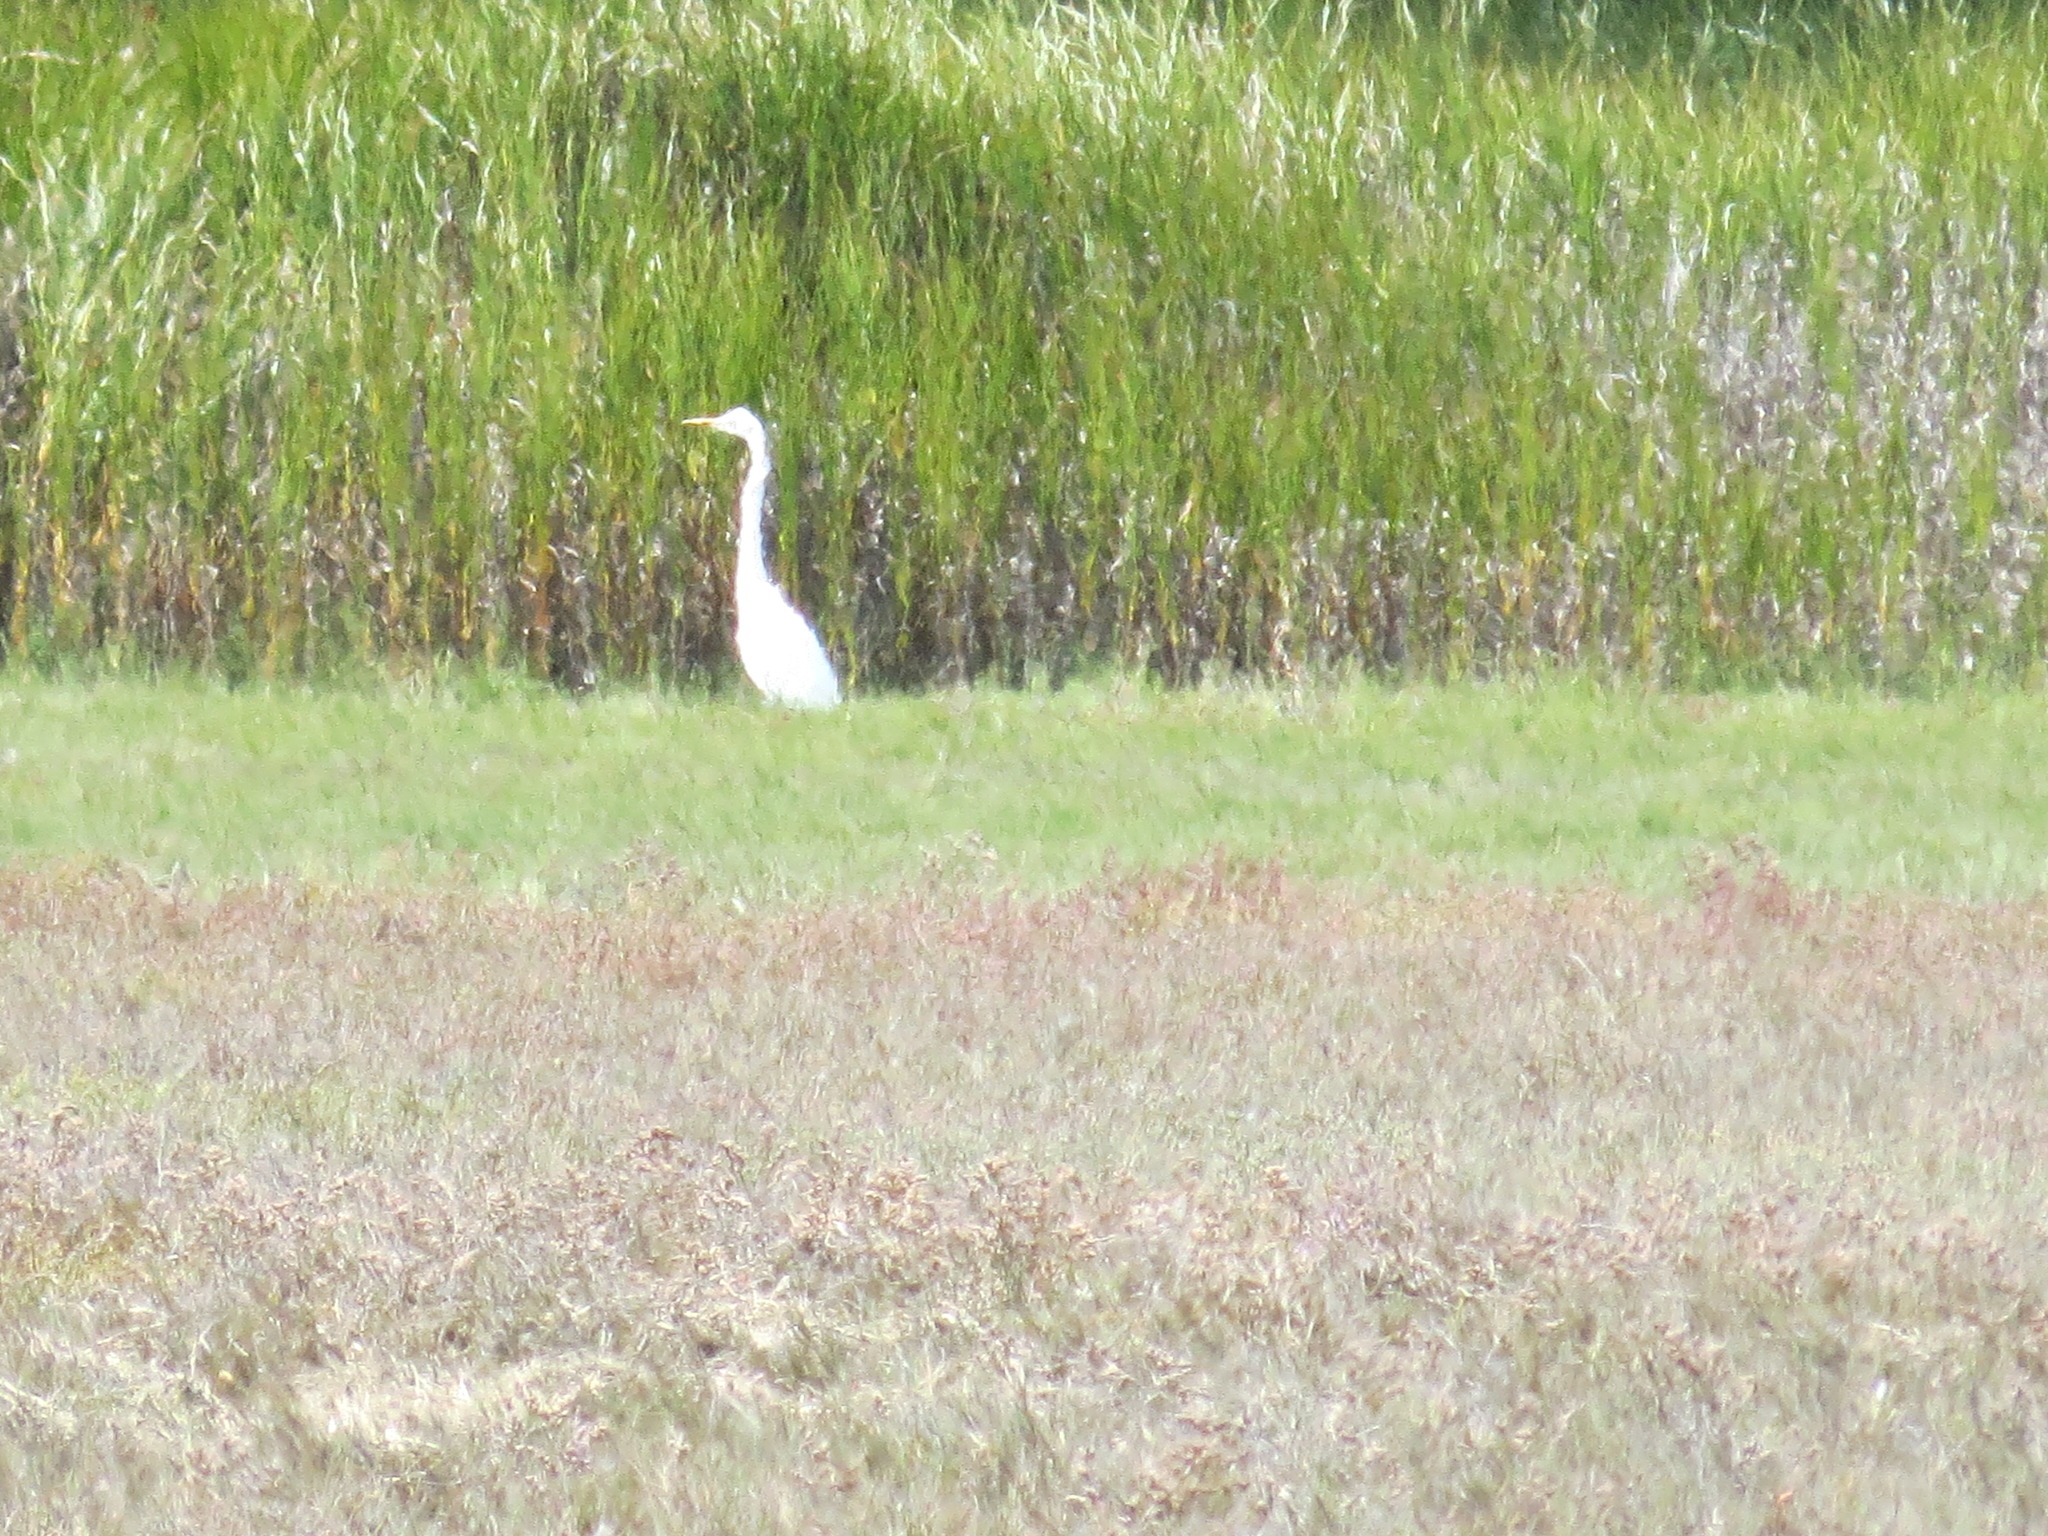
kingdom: Animalia
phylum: Chordata
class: Aves
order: Pelecaniformes
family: Ardeidae
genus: Ardea
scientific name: Ardea alba
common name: Great egret
